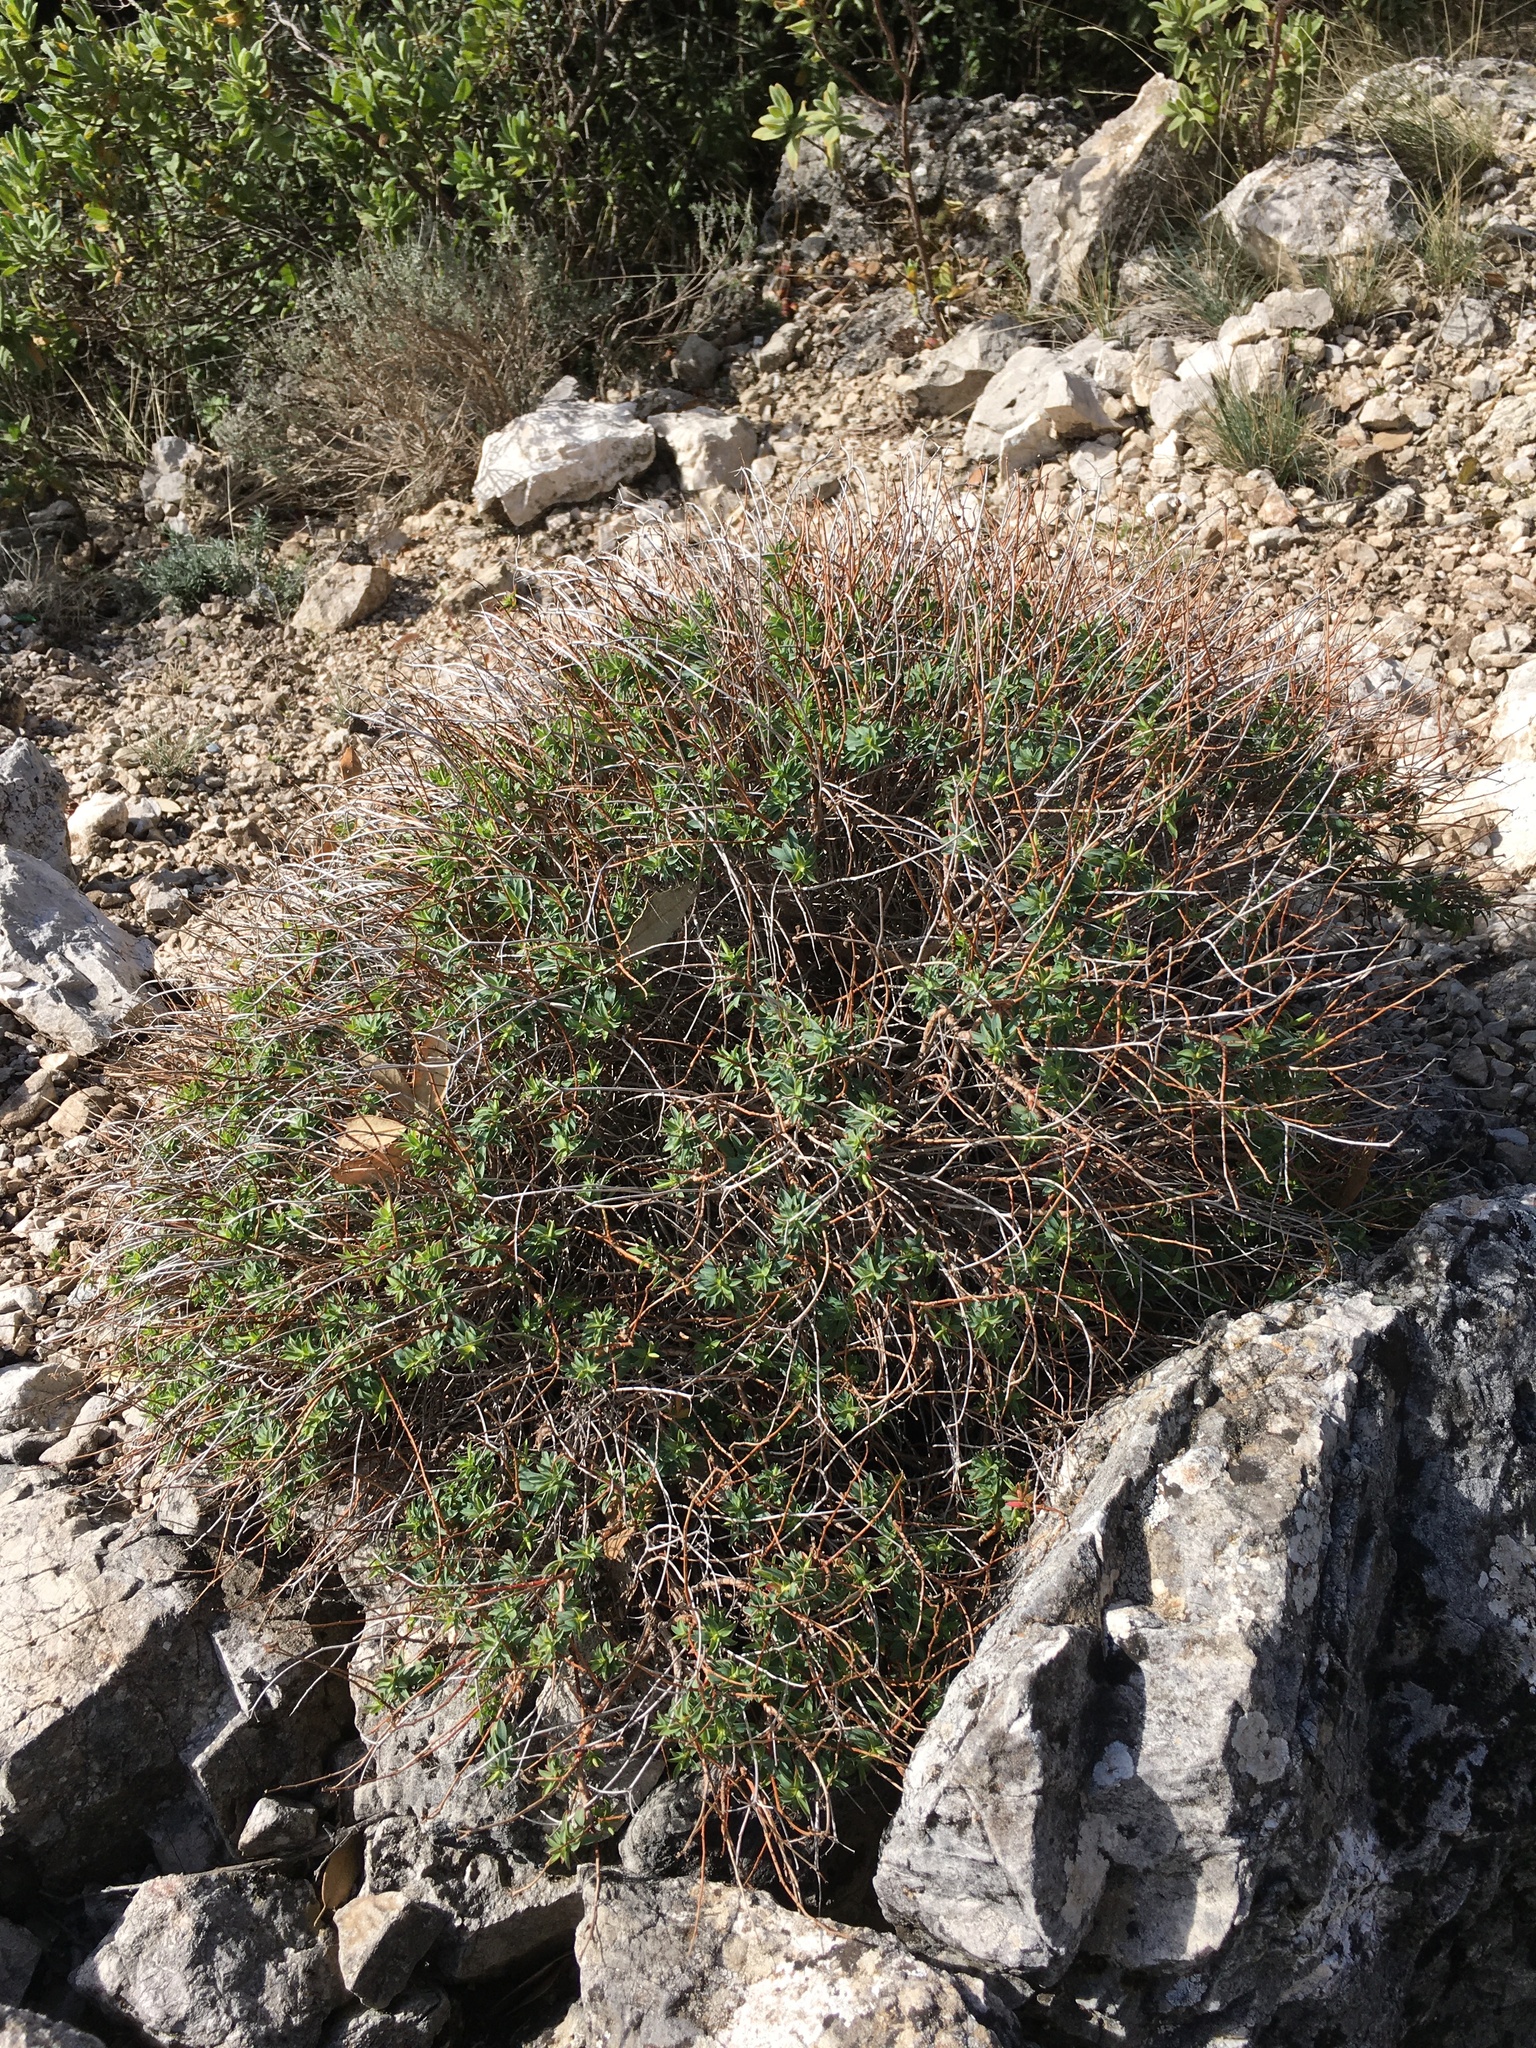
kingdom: Plantae
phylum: Tracheophyta
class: Magnoliopsida
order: Malpighiales
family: Euphorbiaceae
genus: Euphorbia
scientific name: Euphorbia spinosa
